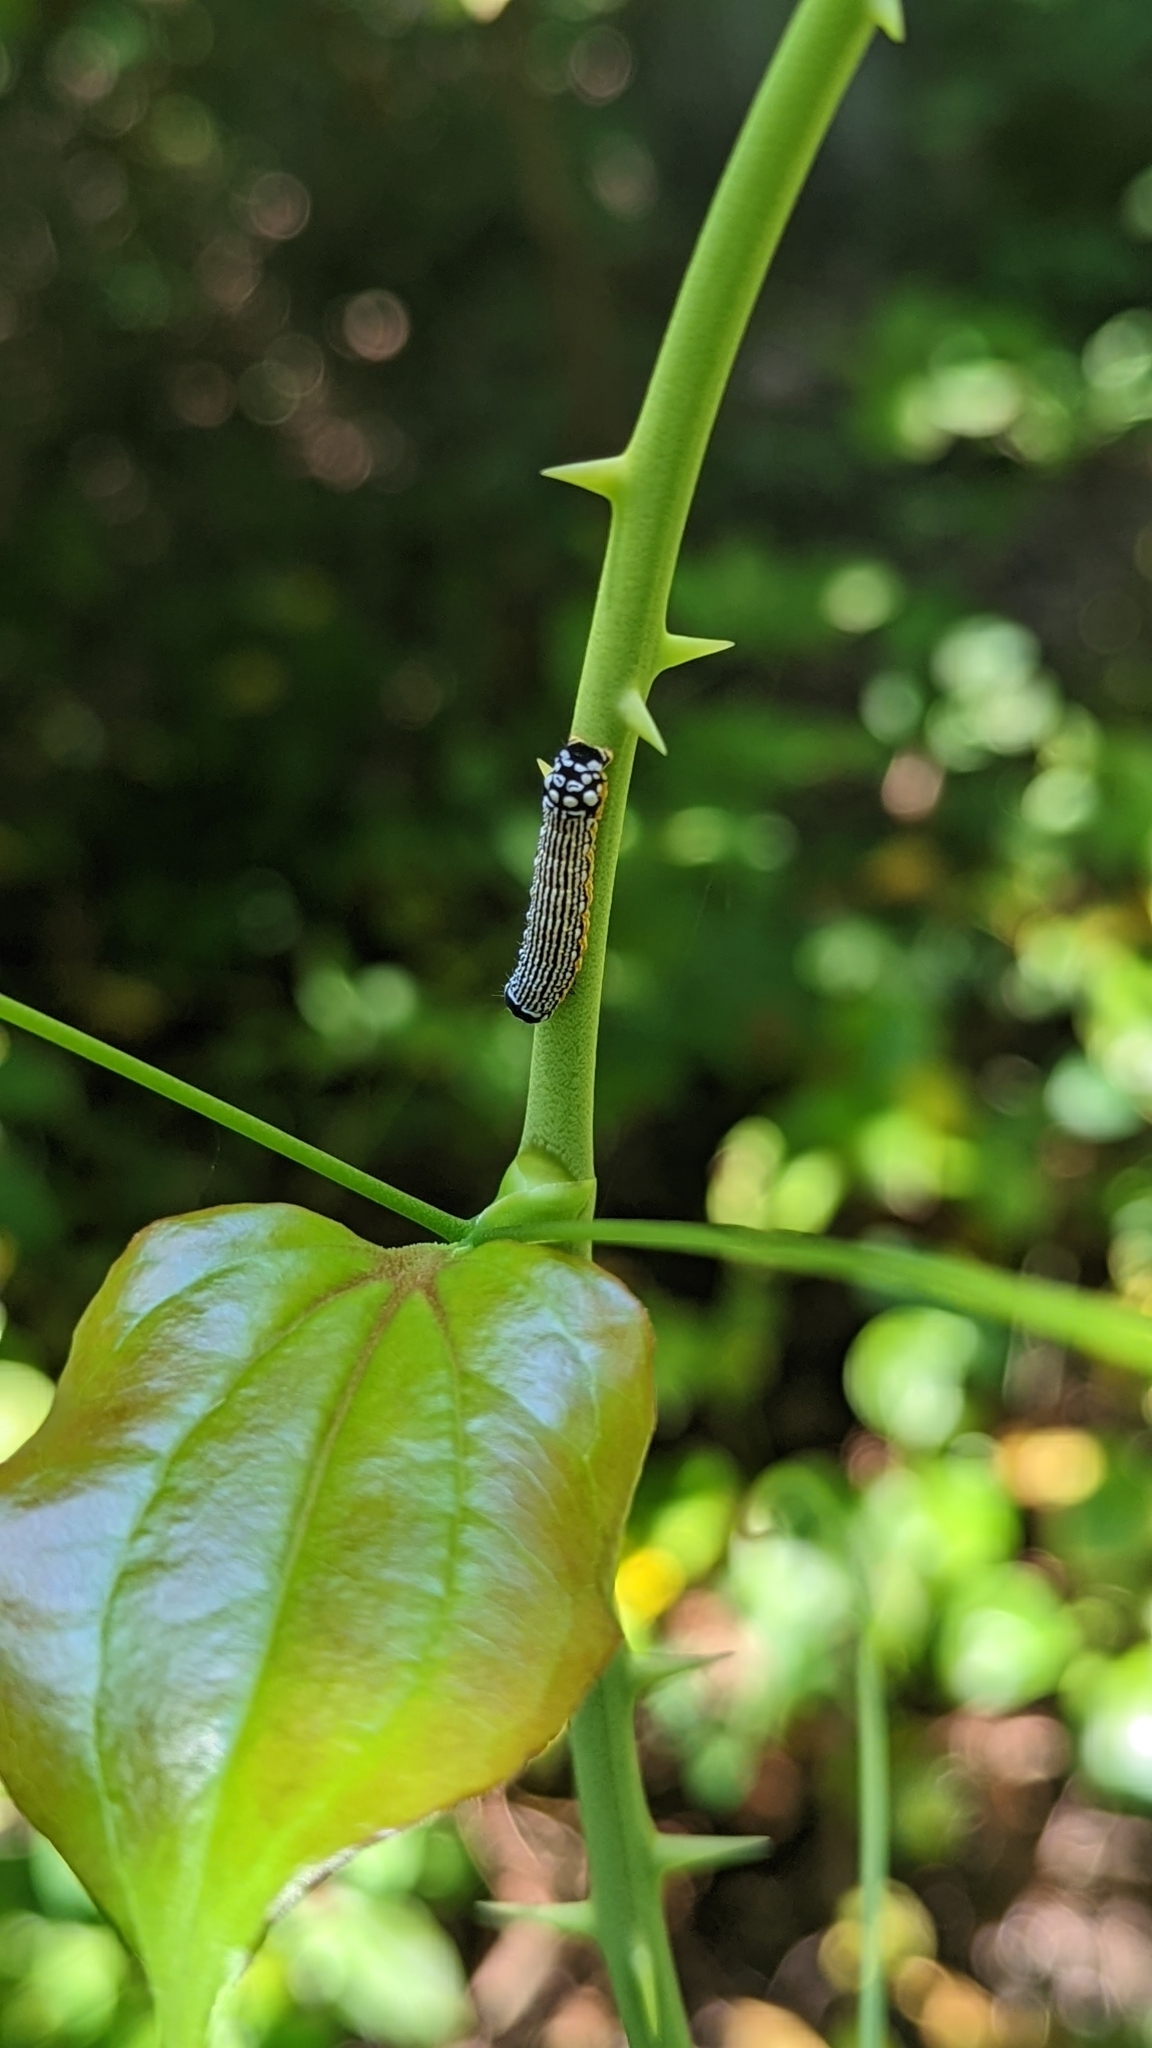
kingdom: Animalia
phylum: Arthropoda
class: Insecta
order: Lepidoptera
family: Noctuidae
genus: Phosphila
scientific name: Phosphila turbulenta
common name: Turbulent phosphila moth
